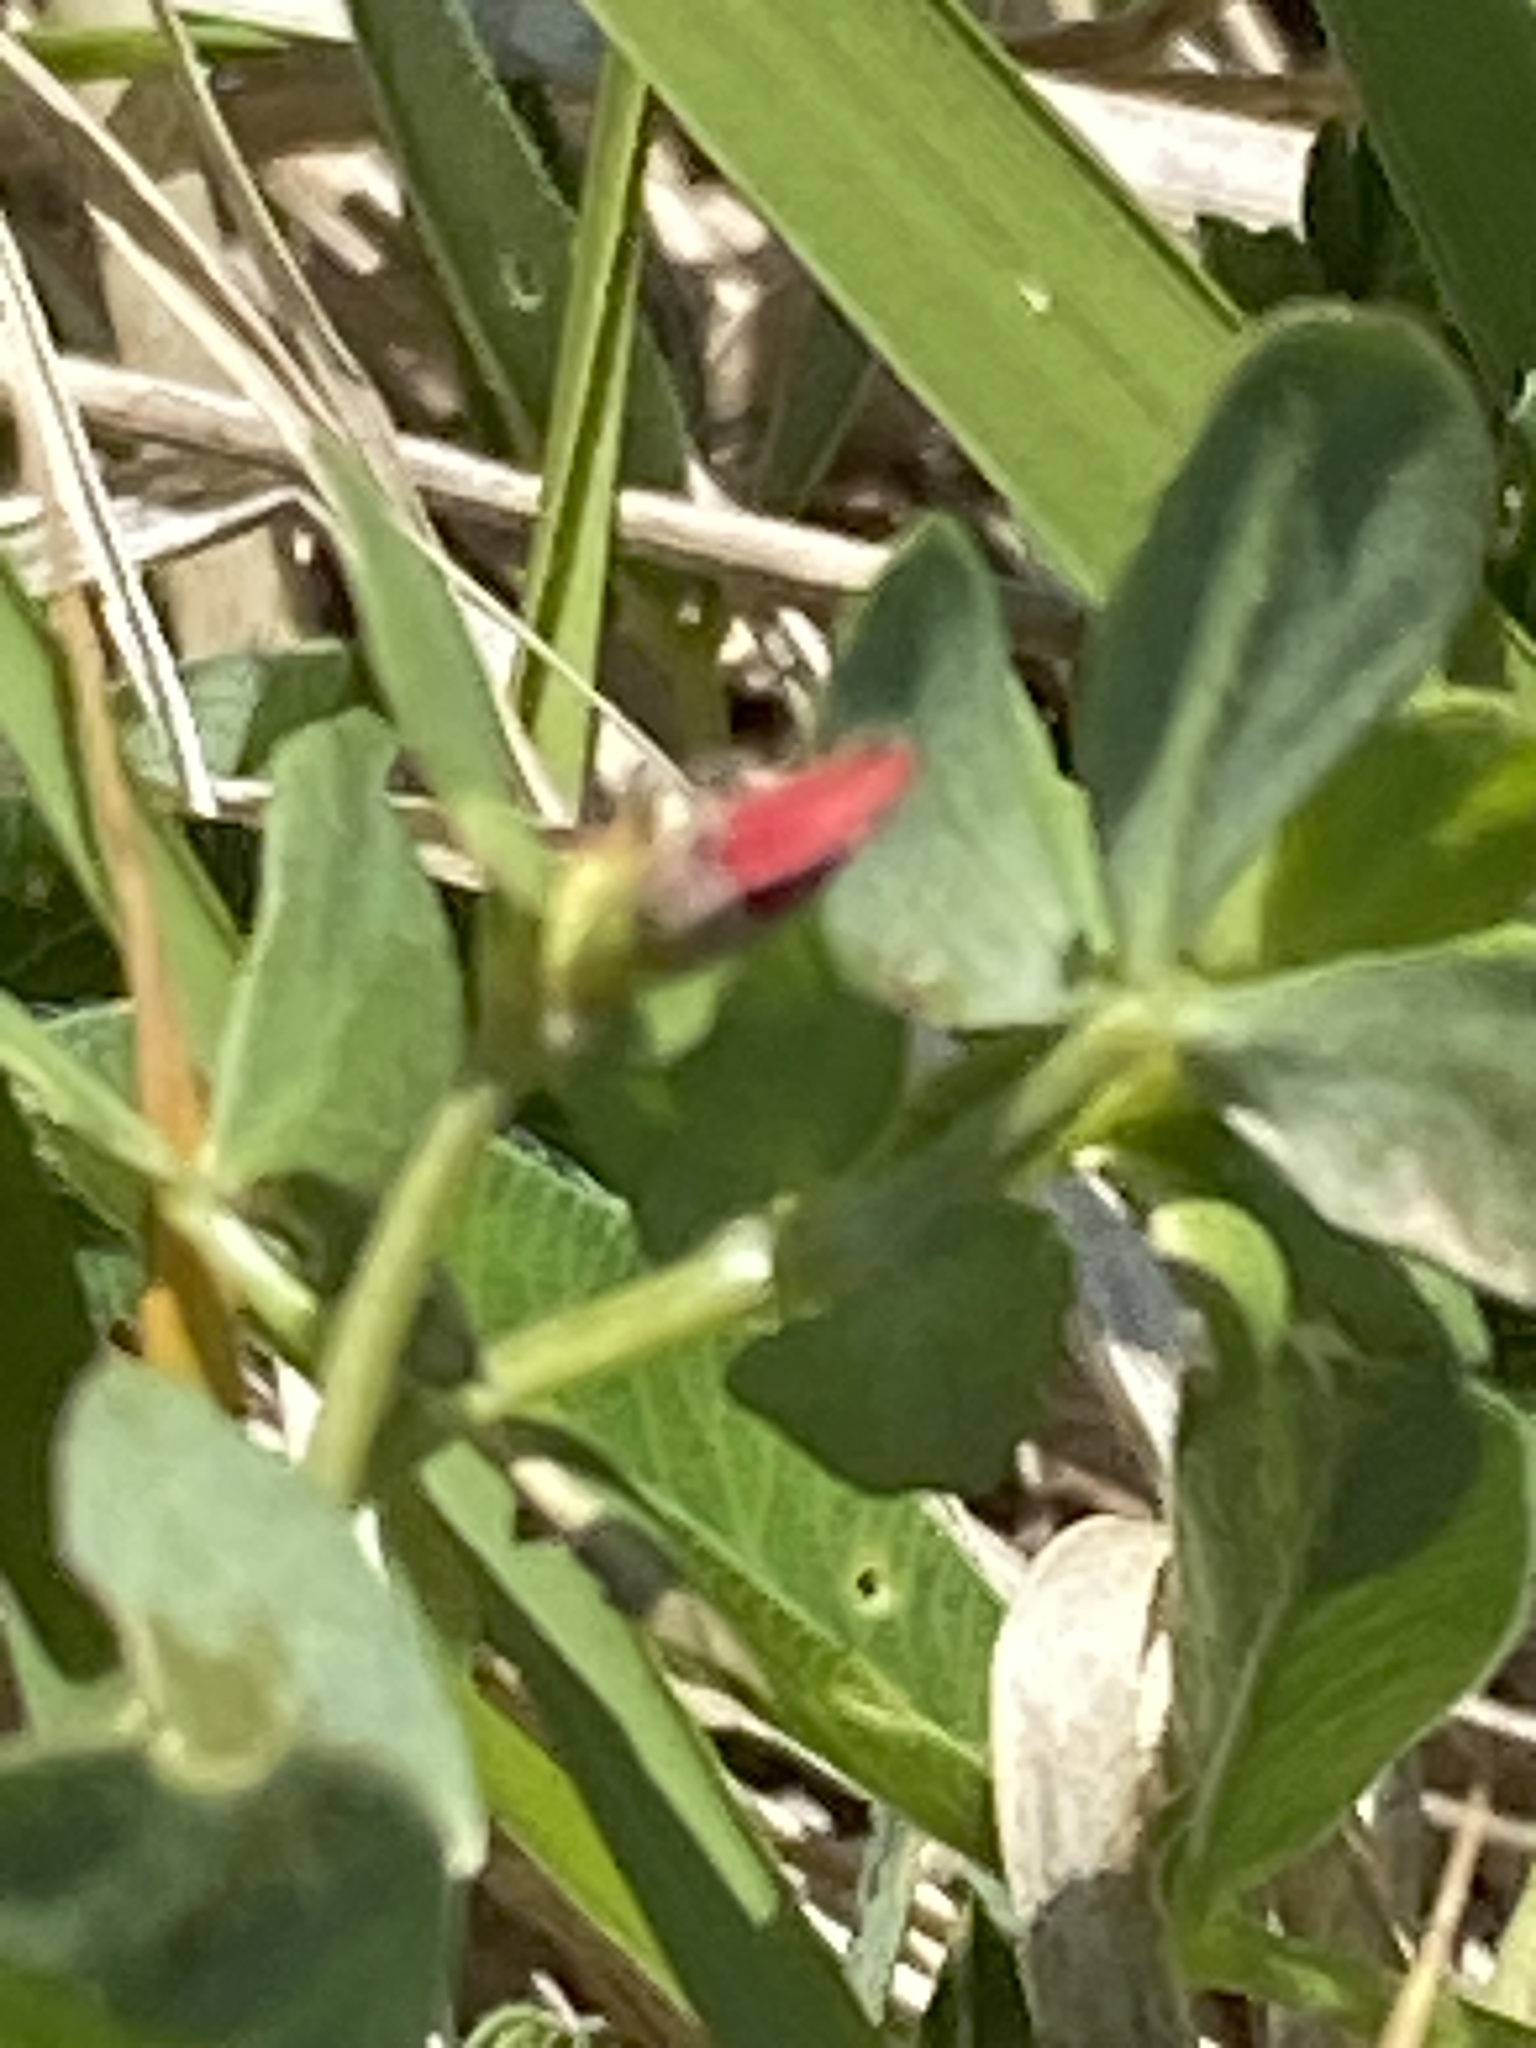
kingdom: Plantae
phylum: Tracheophyta
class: Magnoliopsida
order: Fabales
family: Fabaceae
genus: Lotus
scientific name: Lotus corniculatus
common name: Common bird's-foot-trefoil
